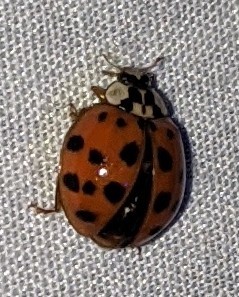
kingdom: Animalia
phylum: Arthropoda
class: Insecta
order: Coleoptera
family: Coccinellidae
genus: Harmonia
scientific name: Harmonia axyridis
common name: Harlequin ladybird
